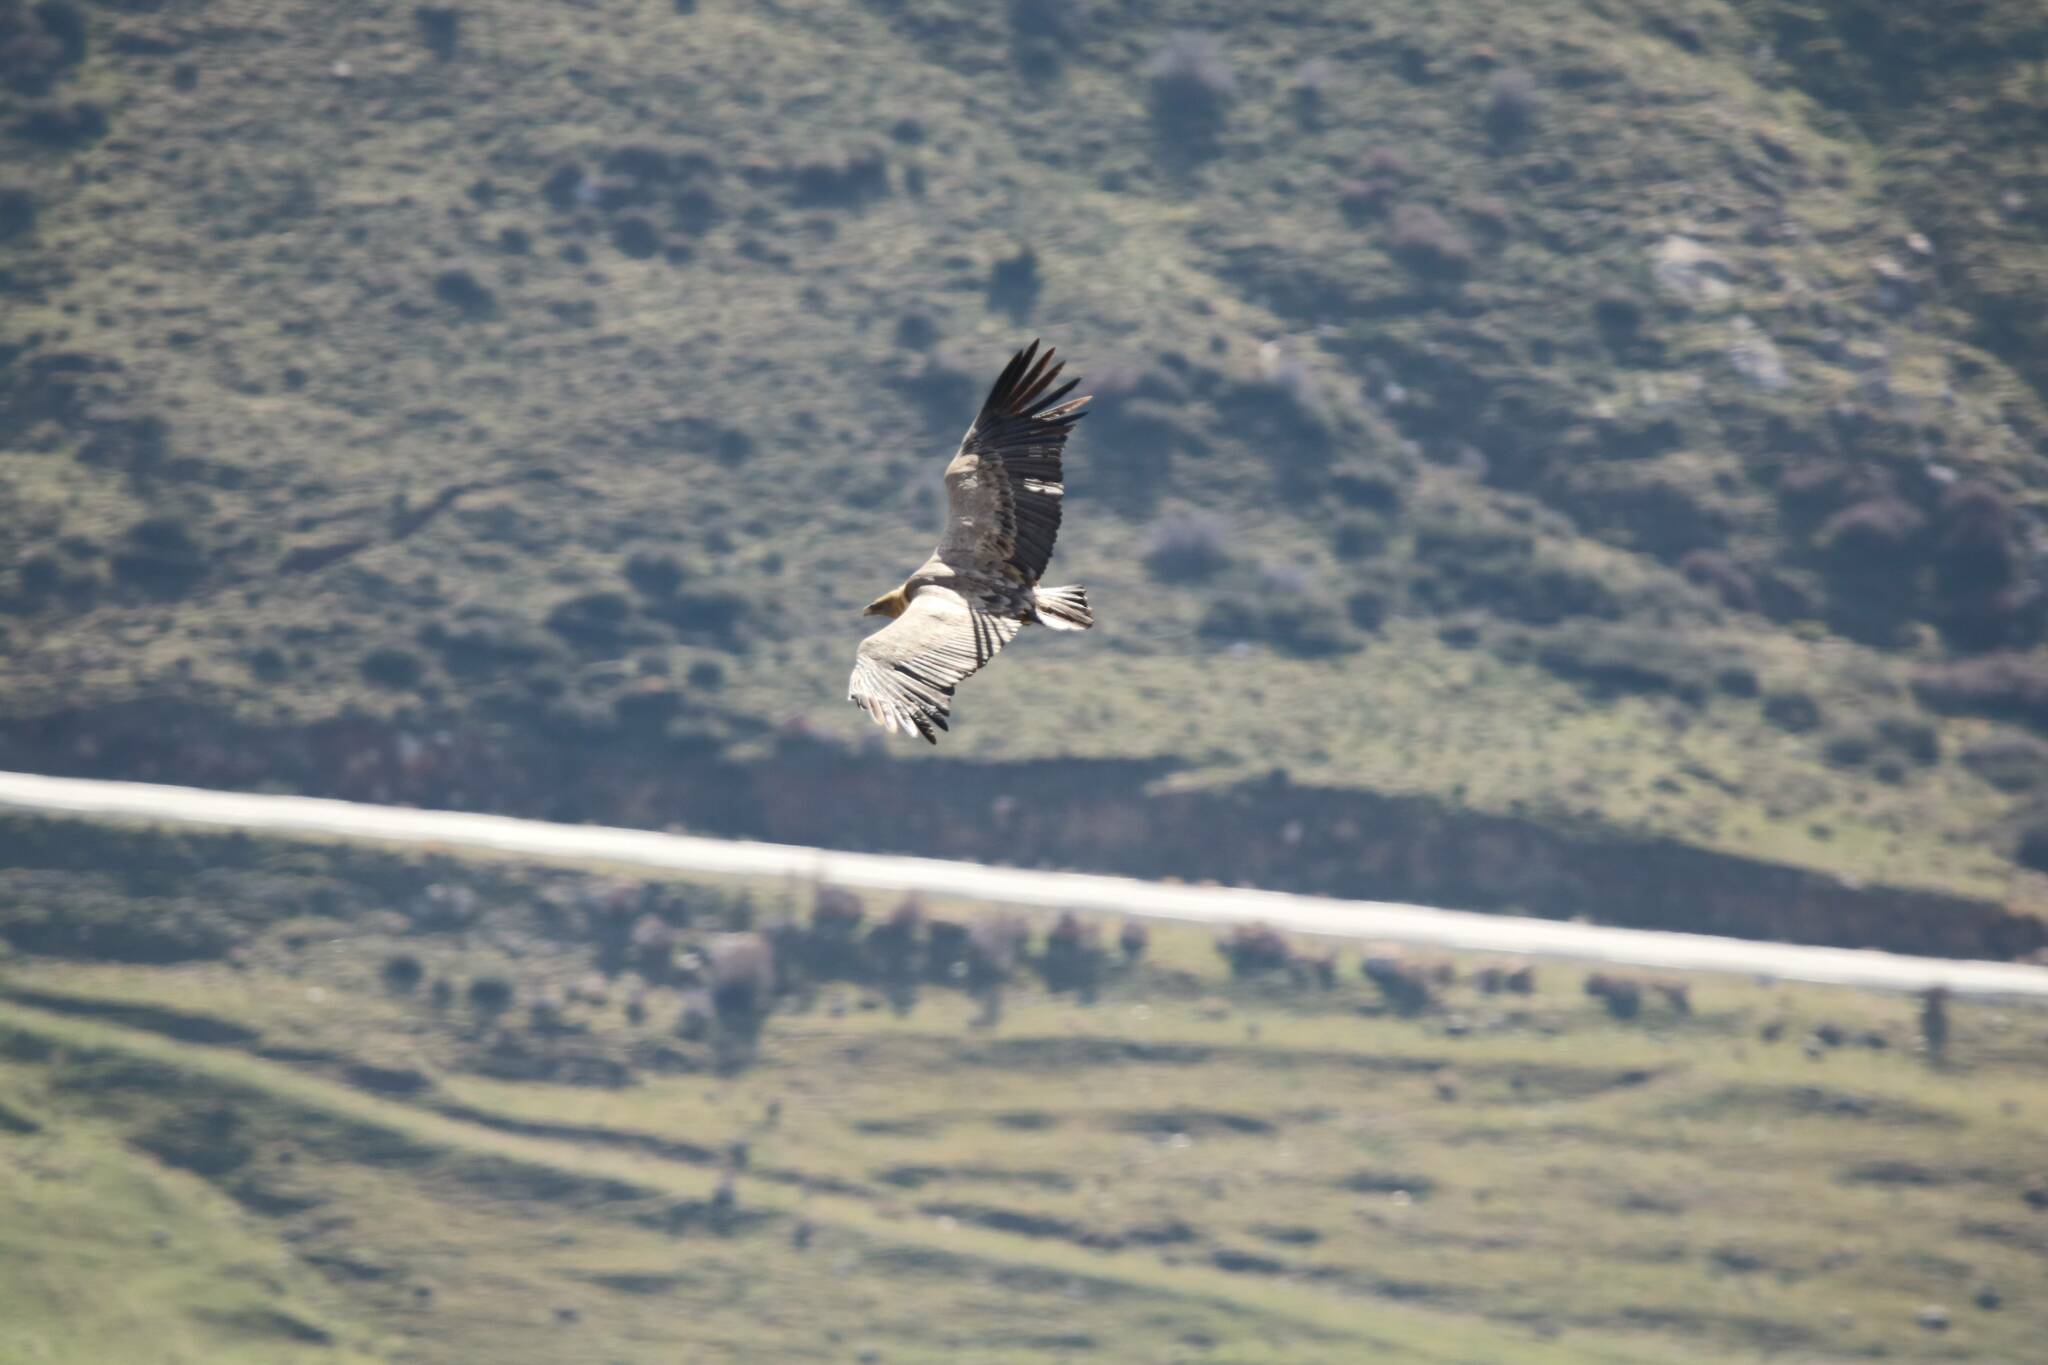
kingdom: Animalia
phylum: Chordata
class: Aves
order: Accipitriformes
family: Accipitridae
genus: Gyps
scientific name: Gyps fulvus
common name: Griffon vulture
